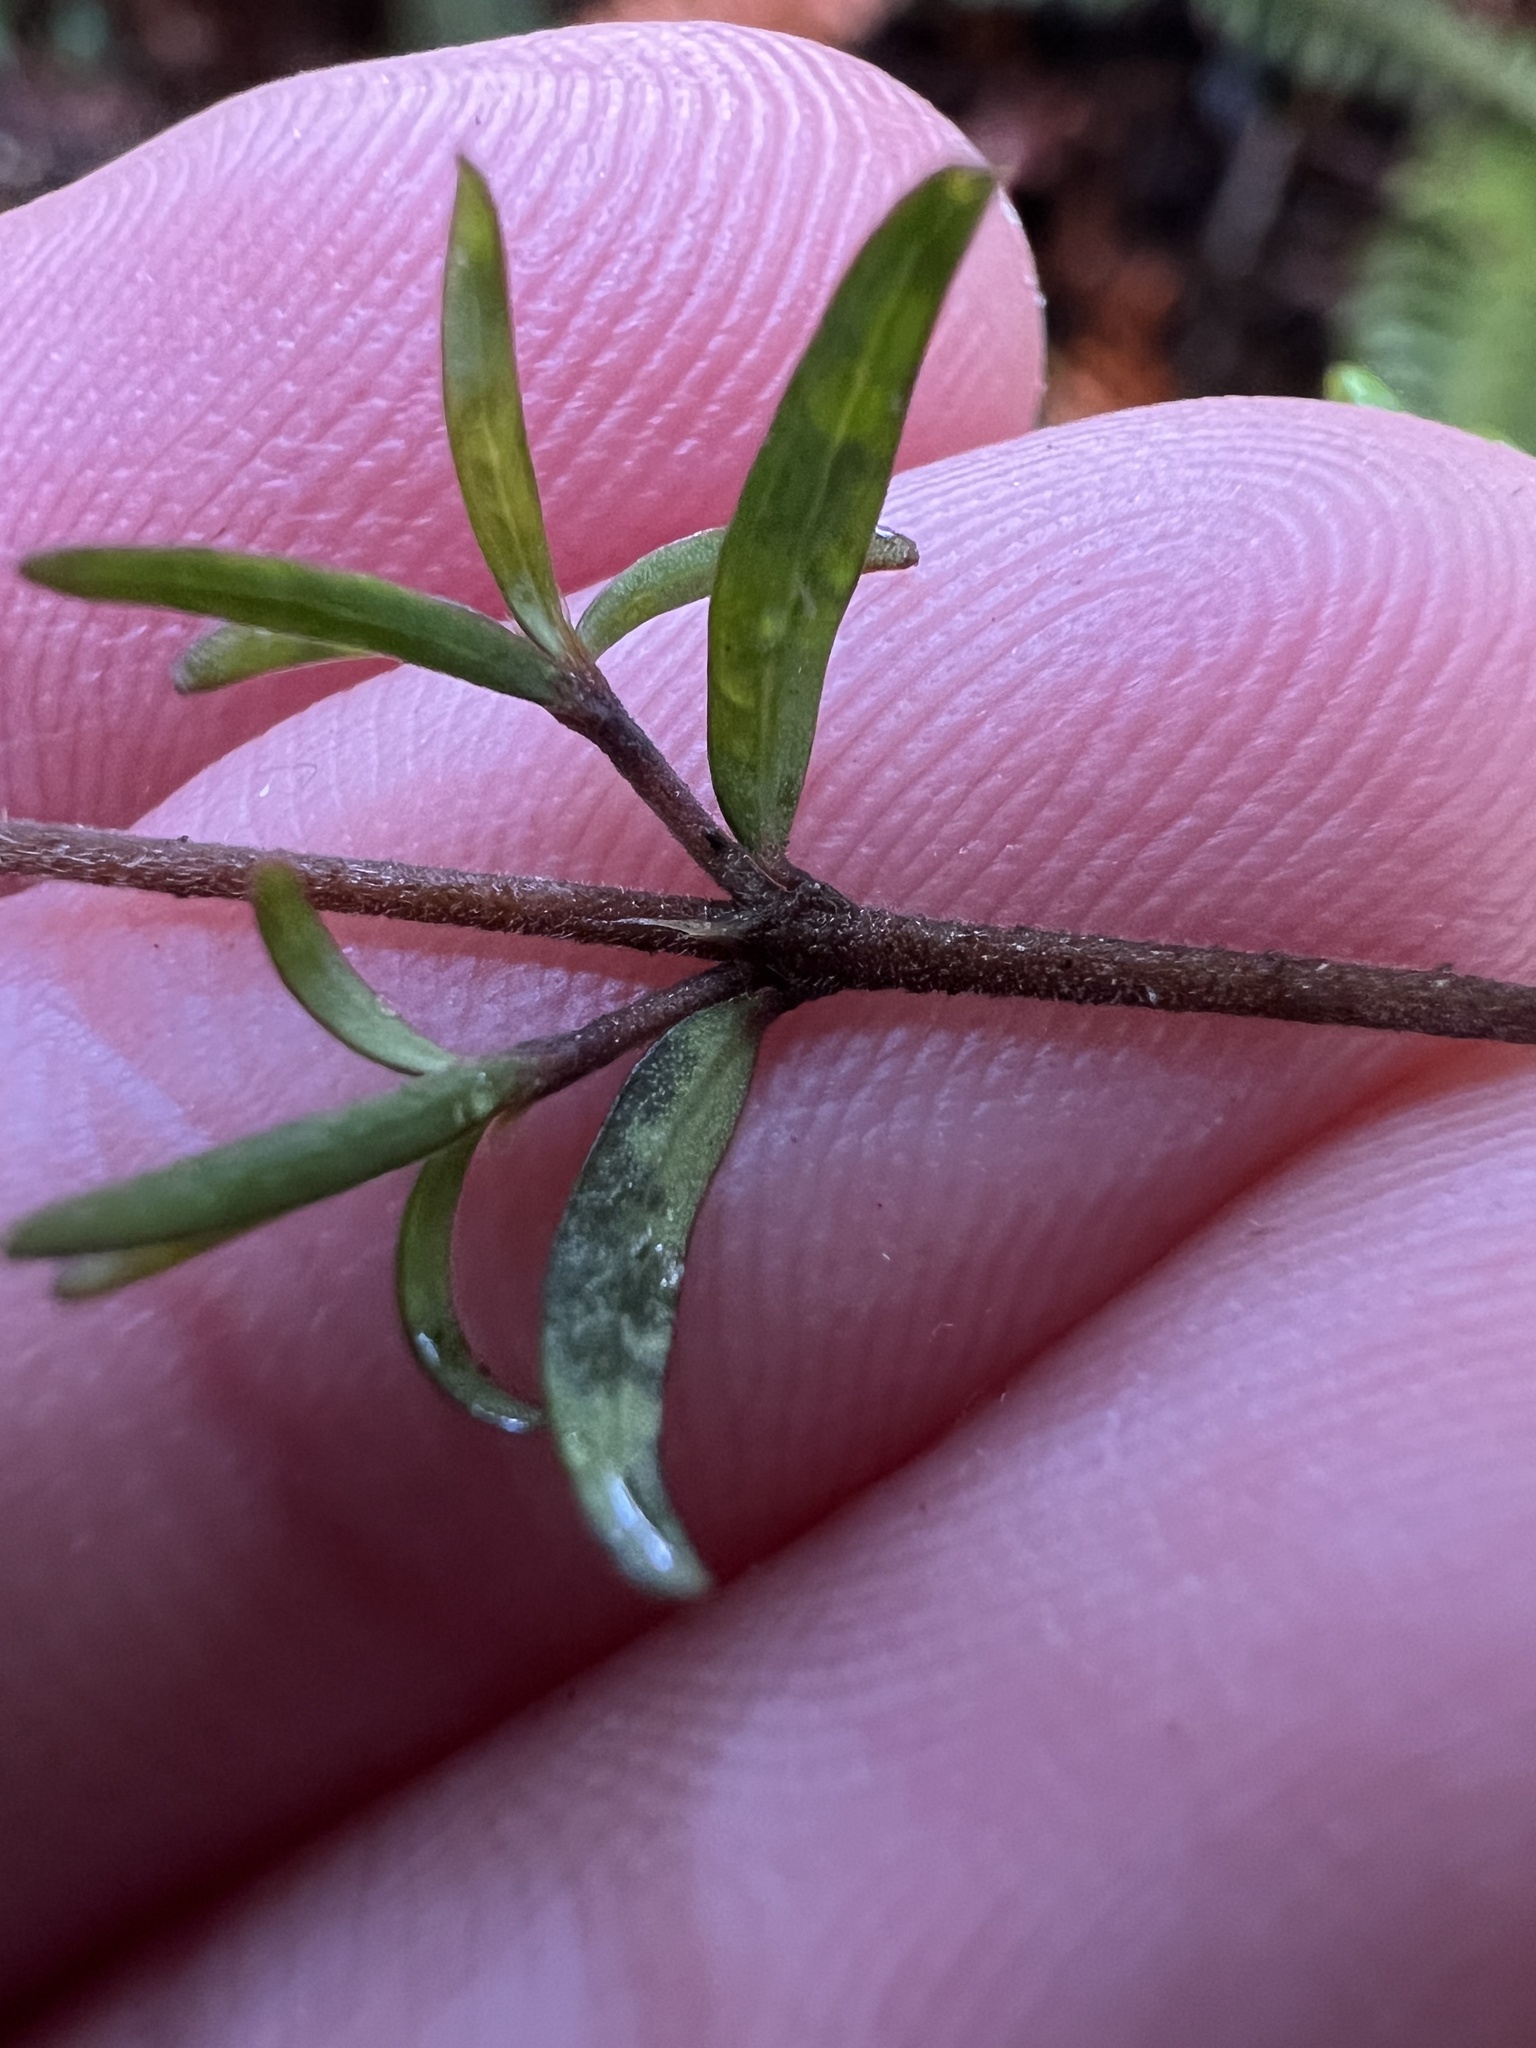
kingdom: Plantae
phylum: Tracheophyta
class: Magnoliopsida
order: Gentianales
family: Rubiaceae
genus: Coprosma
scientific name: Coprosma microcarpa
